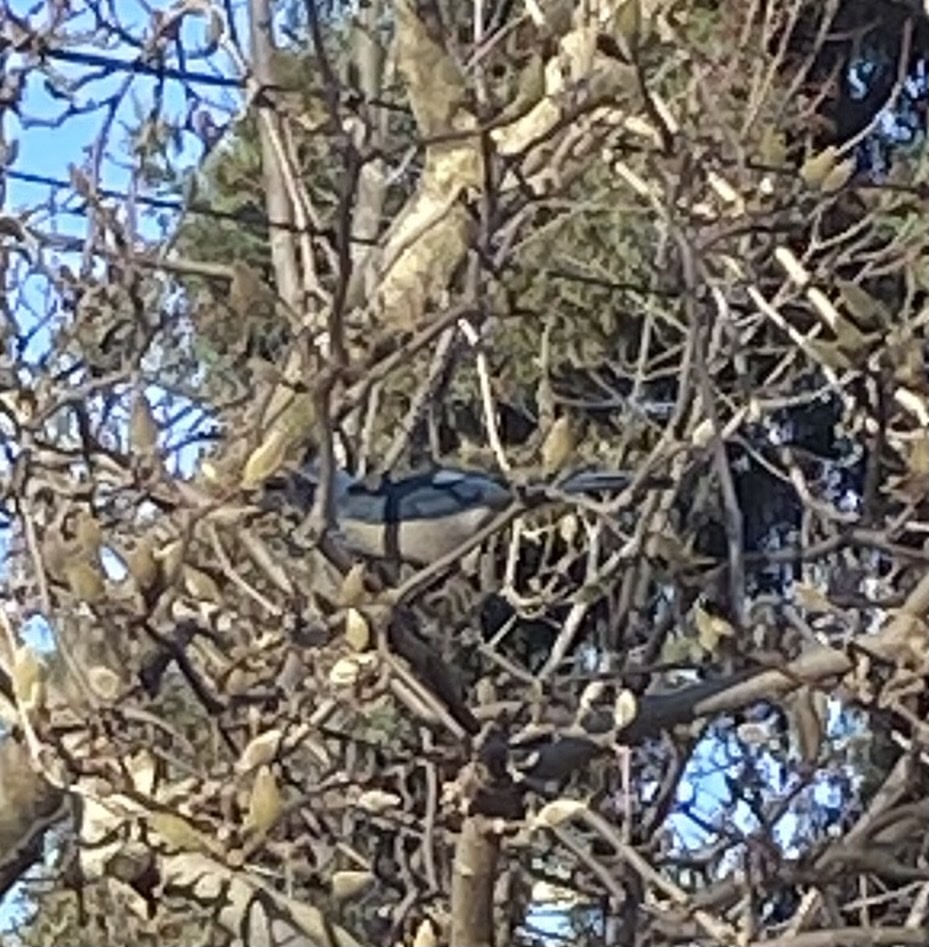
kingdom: Animalia
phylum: Chordata
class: Aves
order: Passeriformes
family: Corvidae
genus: Aphelocoma
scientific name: Aphelocoma californica
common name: California scrub-jay
